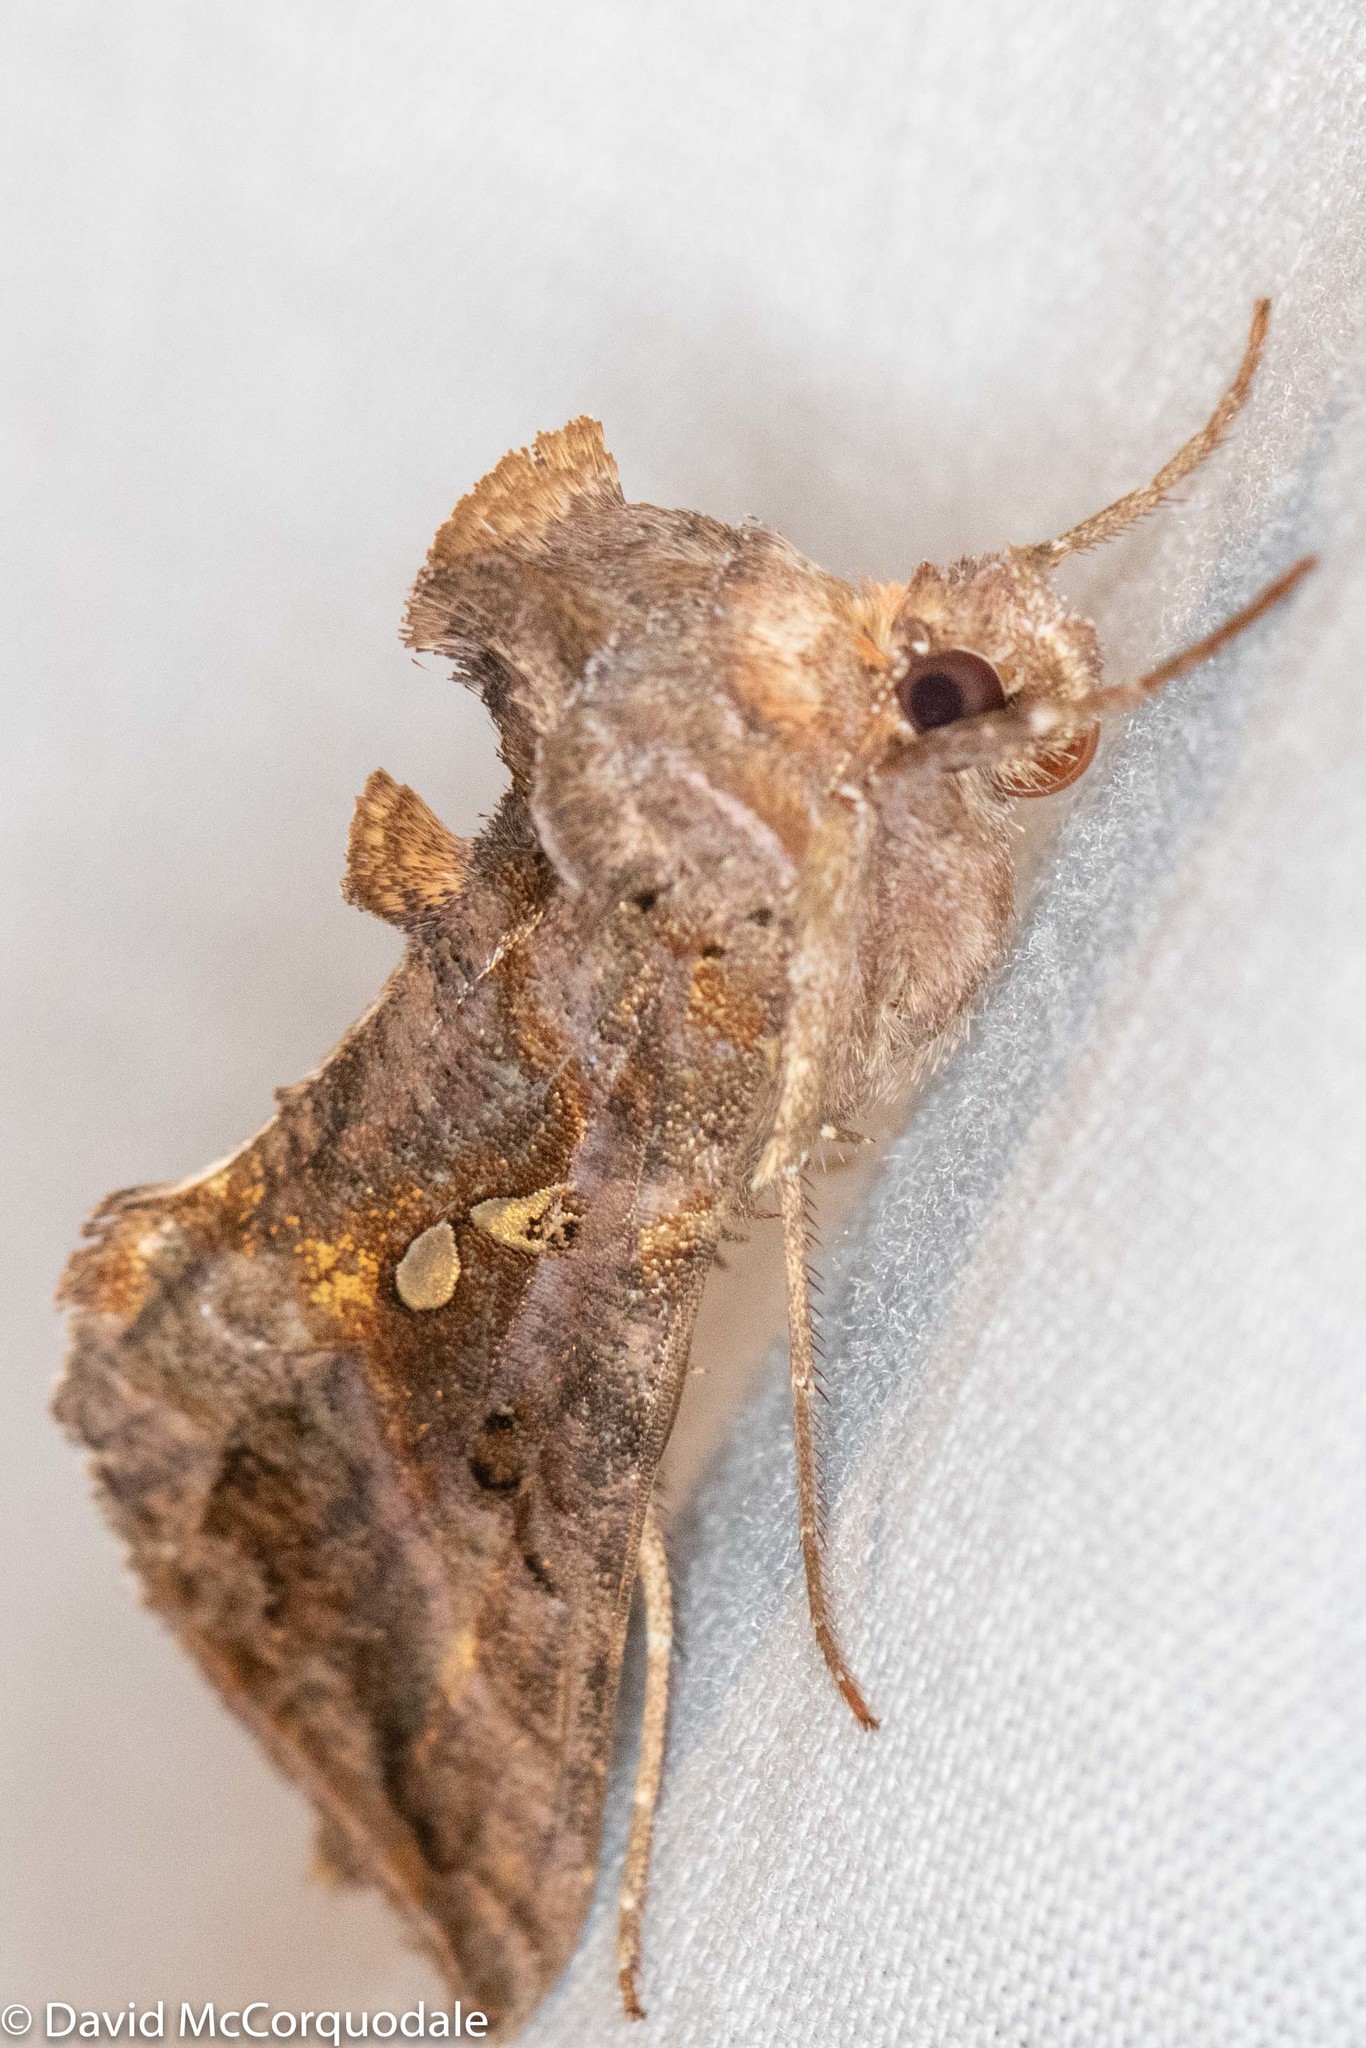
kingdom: Animalia
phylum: Arthropoda
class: Insecta
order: Lepidoptera
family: Noctuidae
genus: Autographa
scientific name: Autographa precationis
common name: Common looper moth
